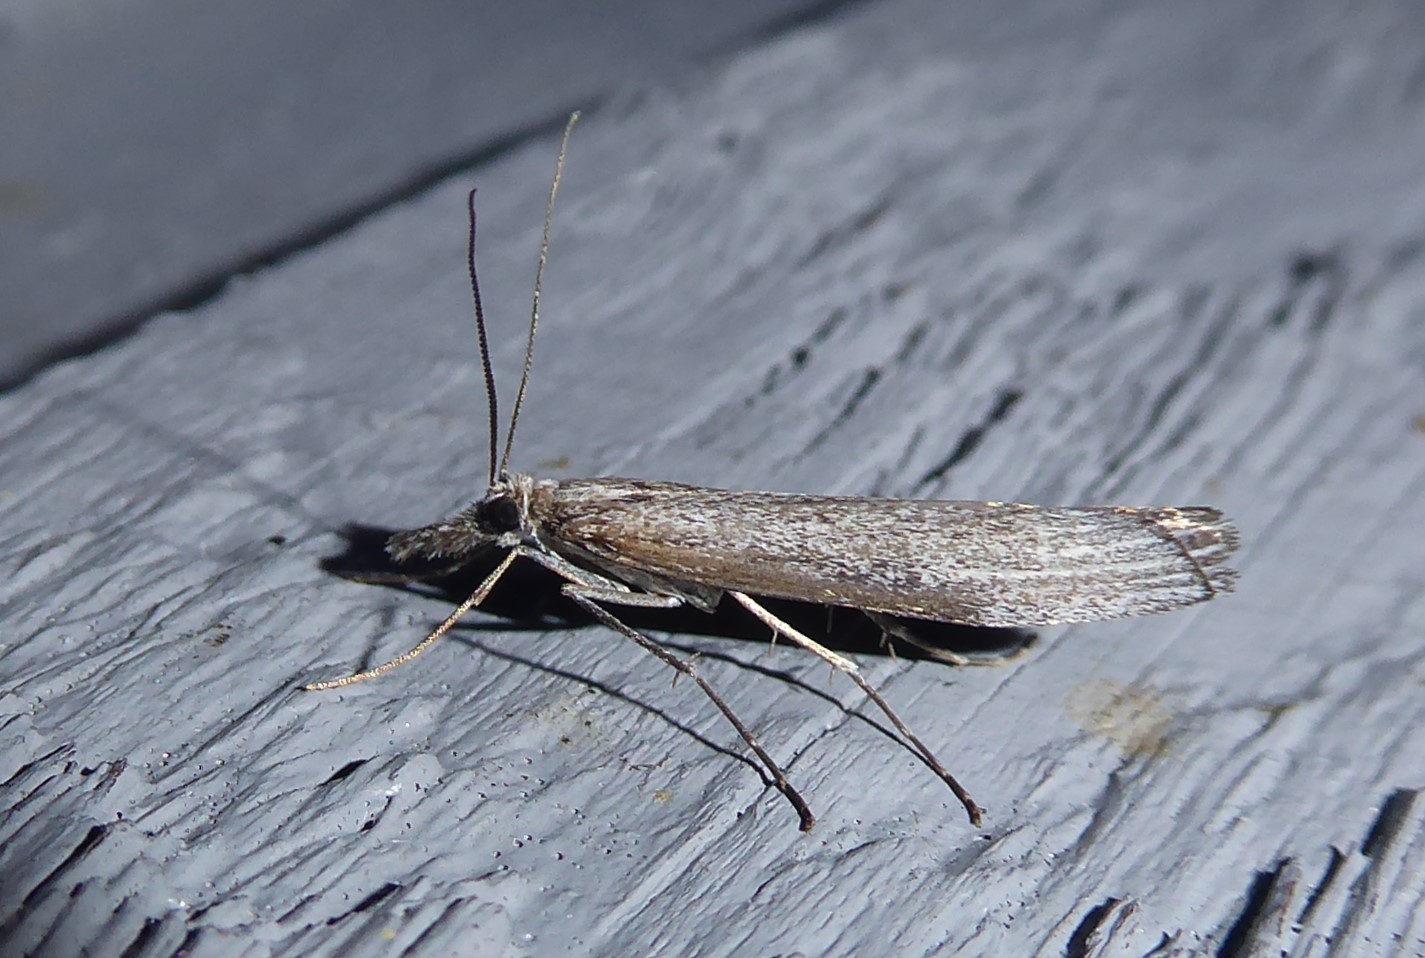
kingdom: Animalia
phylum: Arthropoda
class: Insecta
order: Lepidoptera
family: Crambidae
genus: Orocrambus
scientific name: Orocrambus cyclopicus
